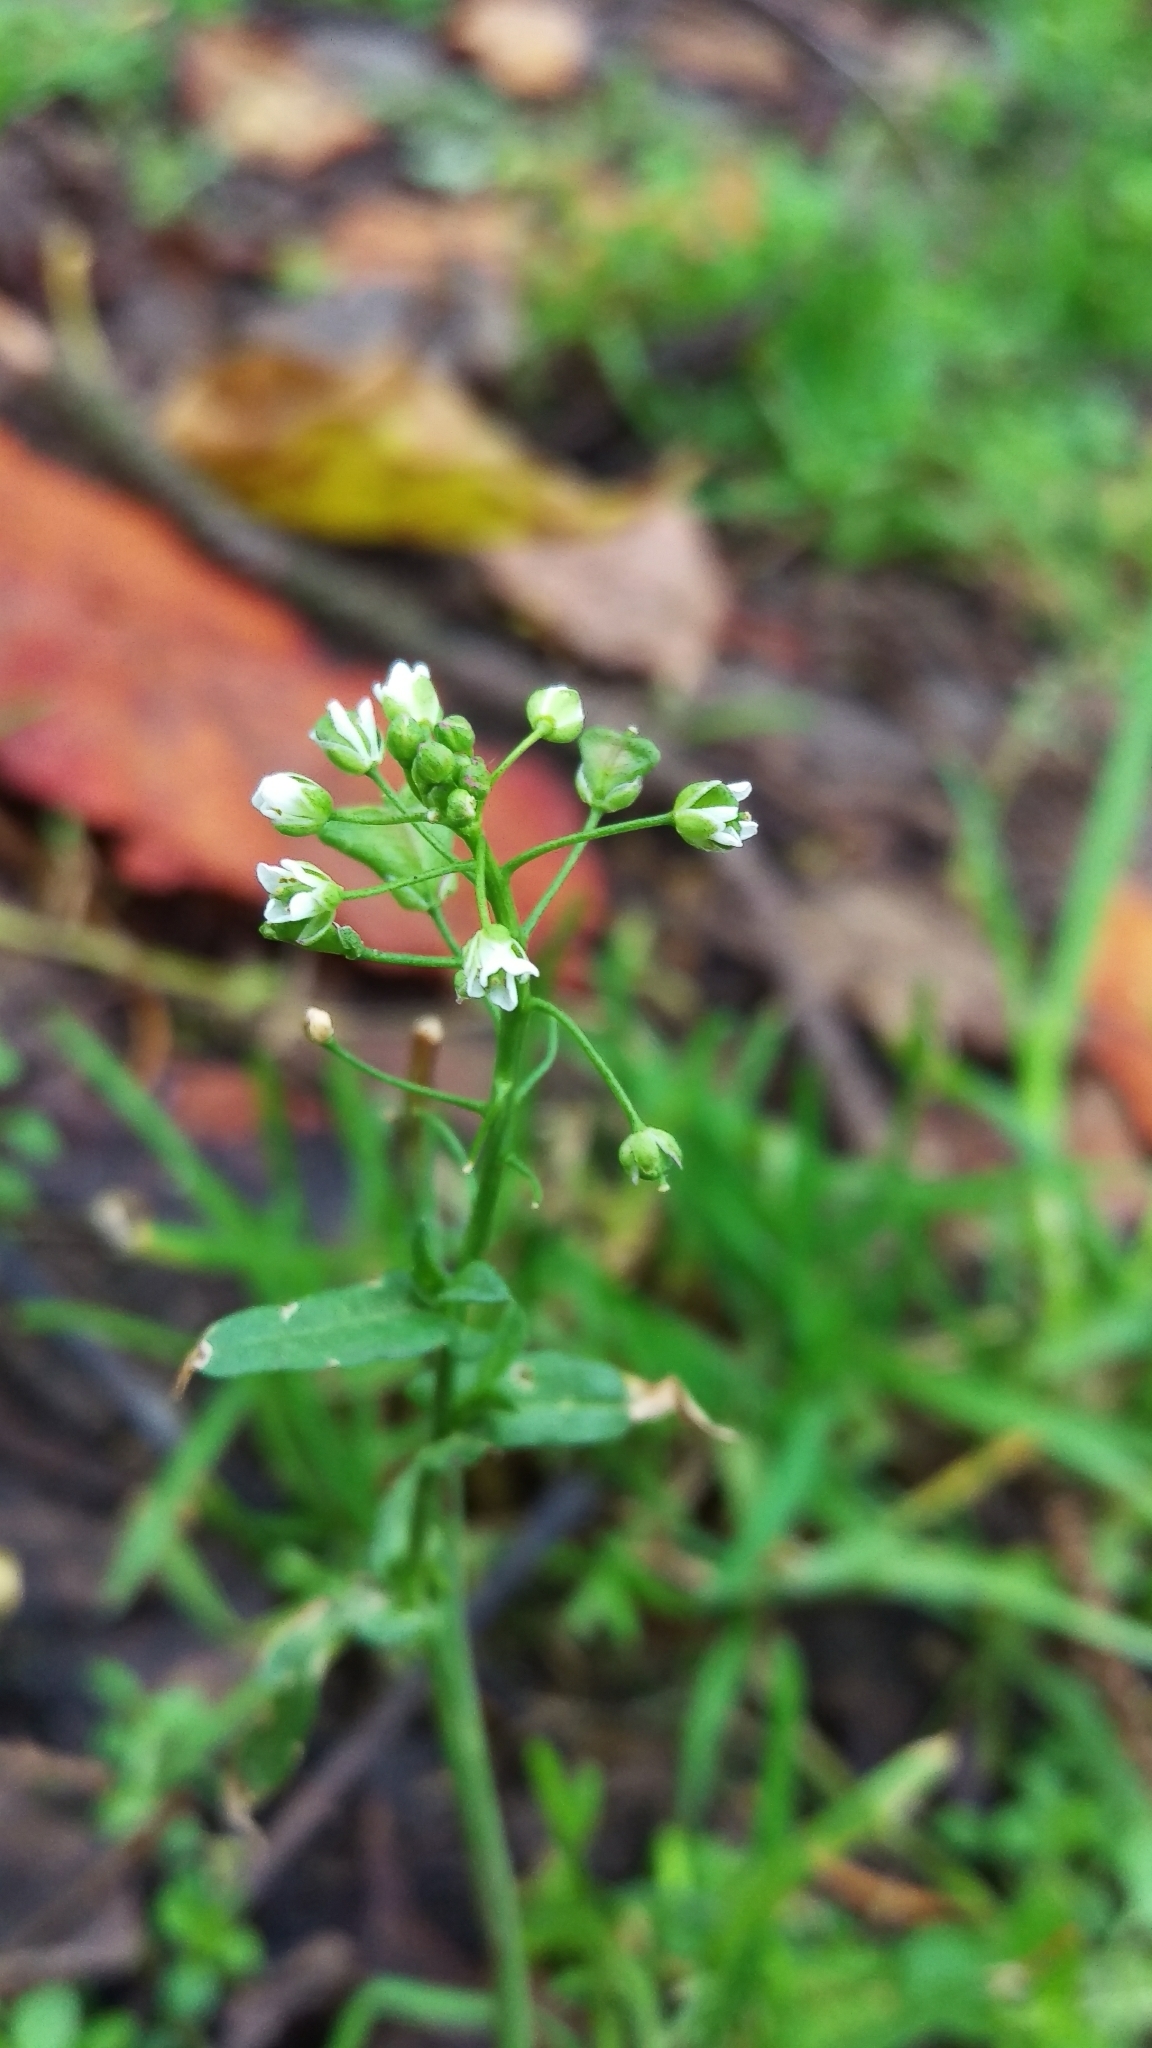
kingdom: Plantae
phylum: Tracheophyta
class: Magnoliopsida
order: Brassicales
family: Brassicaceae
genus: Capsella
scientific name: Capsella bursa-pastoris
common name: Shepherd's purse
